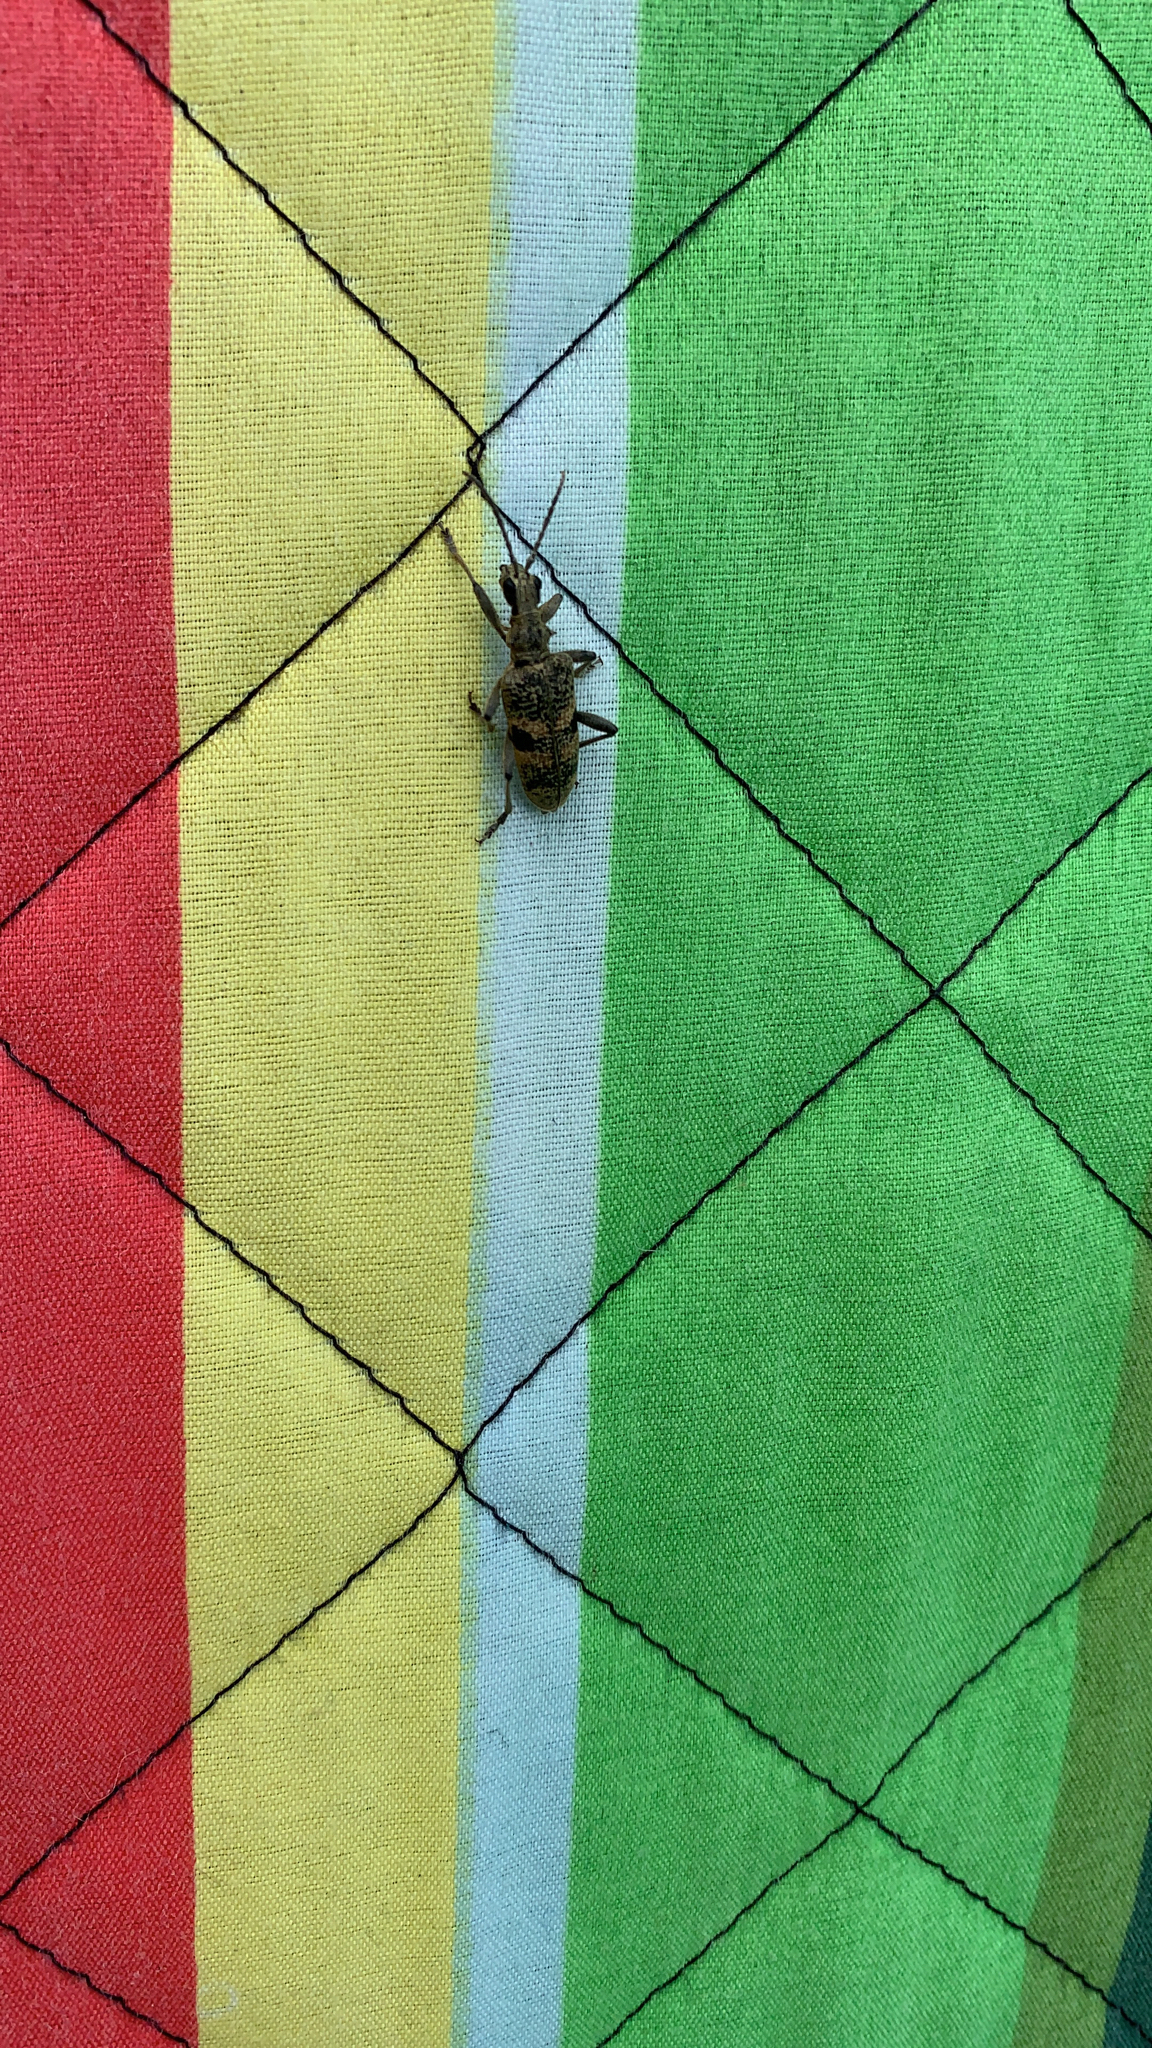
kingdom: Animalia
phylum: Arthropoda
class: Insecta
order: Coleoptera
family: Cerambycidae
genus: Rhagium
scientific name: Rhagium mordax
